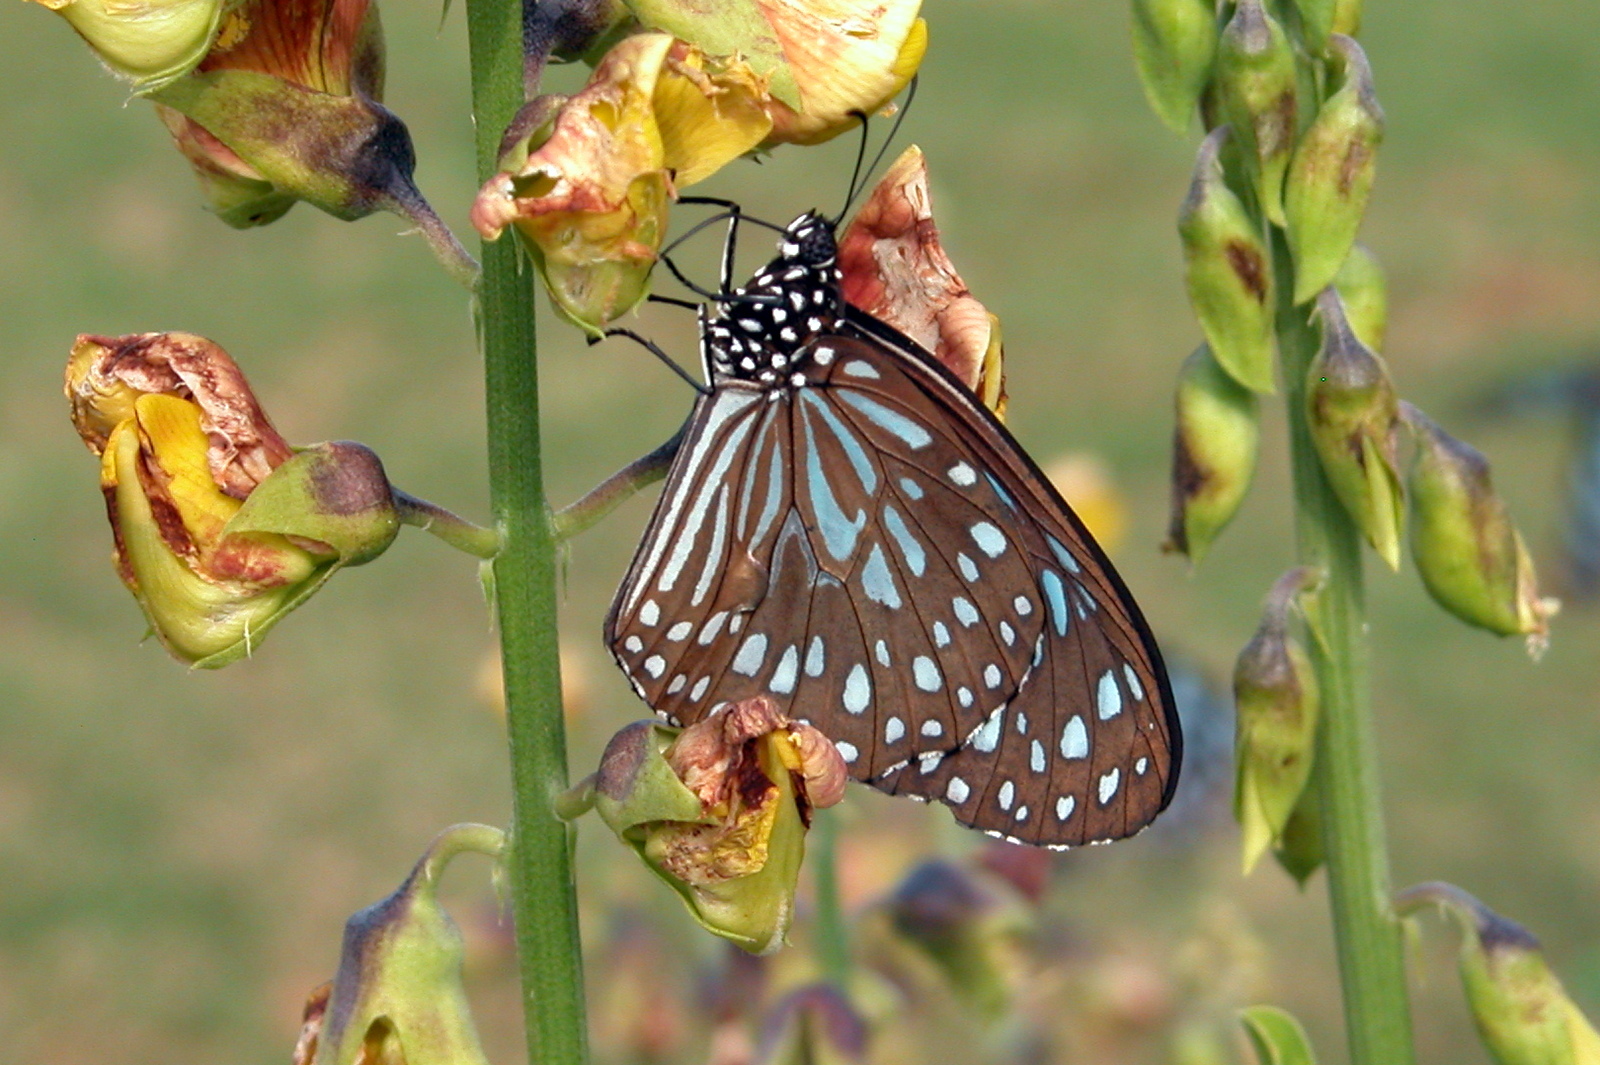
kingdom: Animalia
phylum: Arthropoda
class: Insecta
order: Lepidoptera
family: Nymphalidae
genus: Tirumala
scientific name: Tirumala septentrionis
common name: Dark blue tiger butterfly
